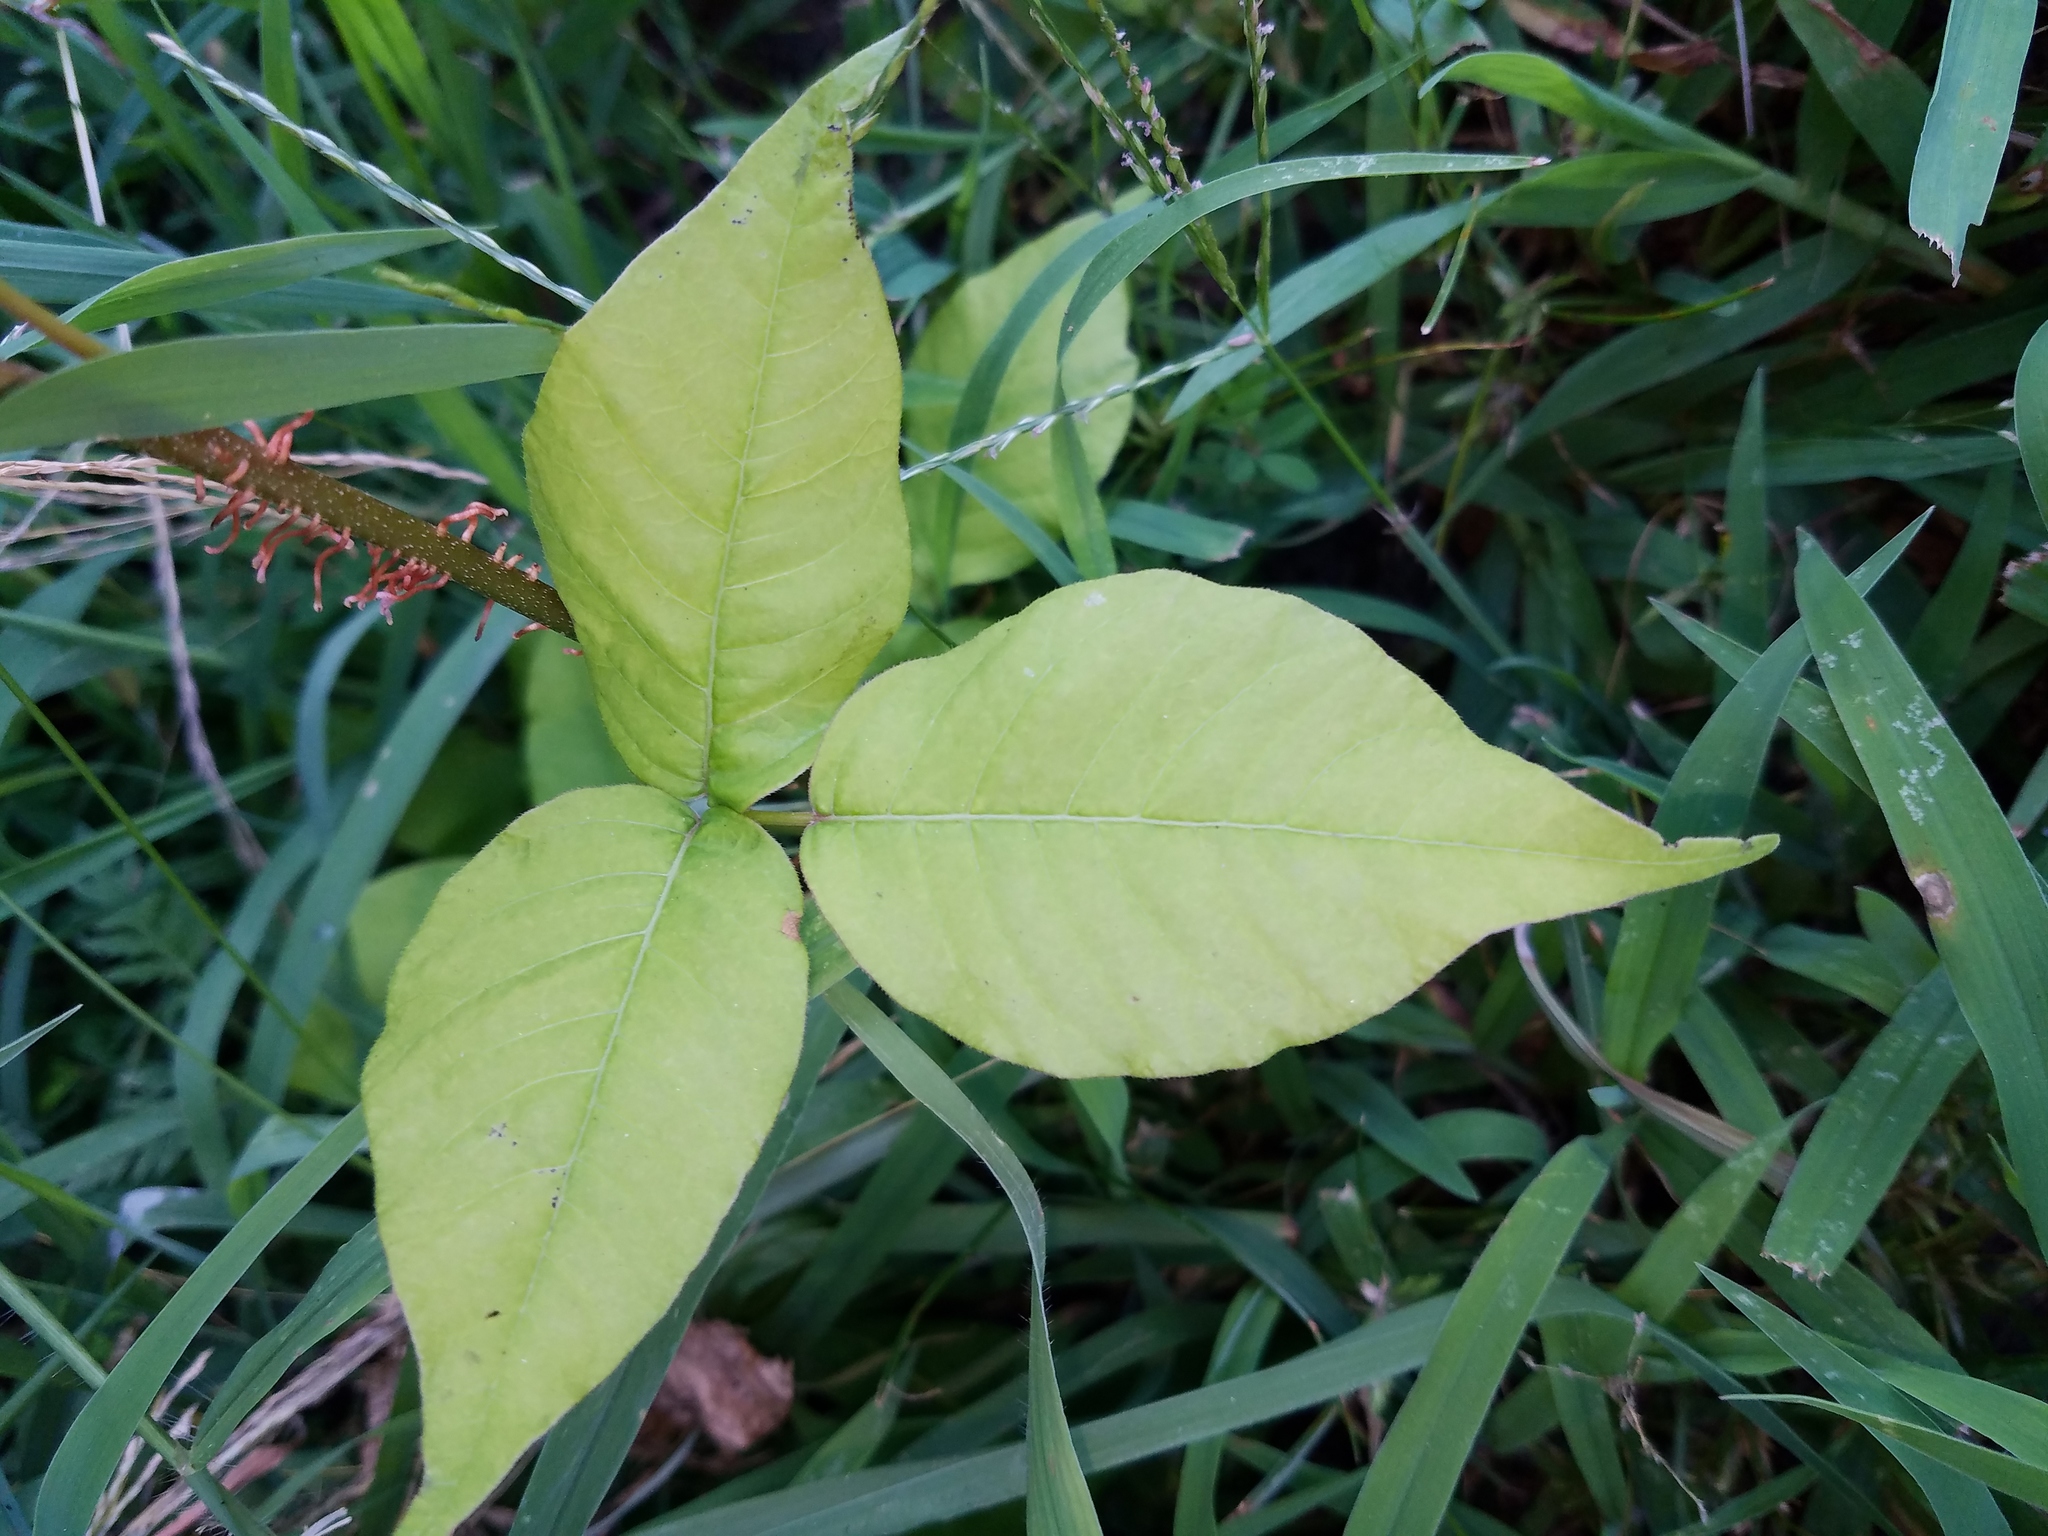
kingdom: Plantae
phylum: Tracheophyta
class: Magnoliopsida
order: Sapindales
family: Anacardiaceae
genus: Toxicodendron
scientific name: Toxicodendron radicans
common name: Poison ivy
